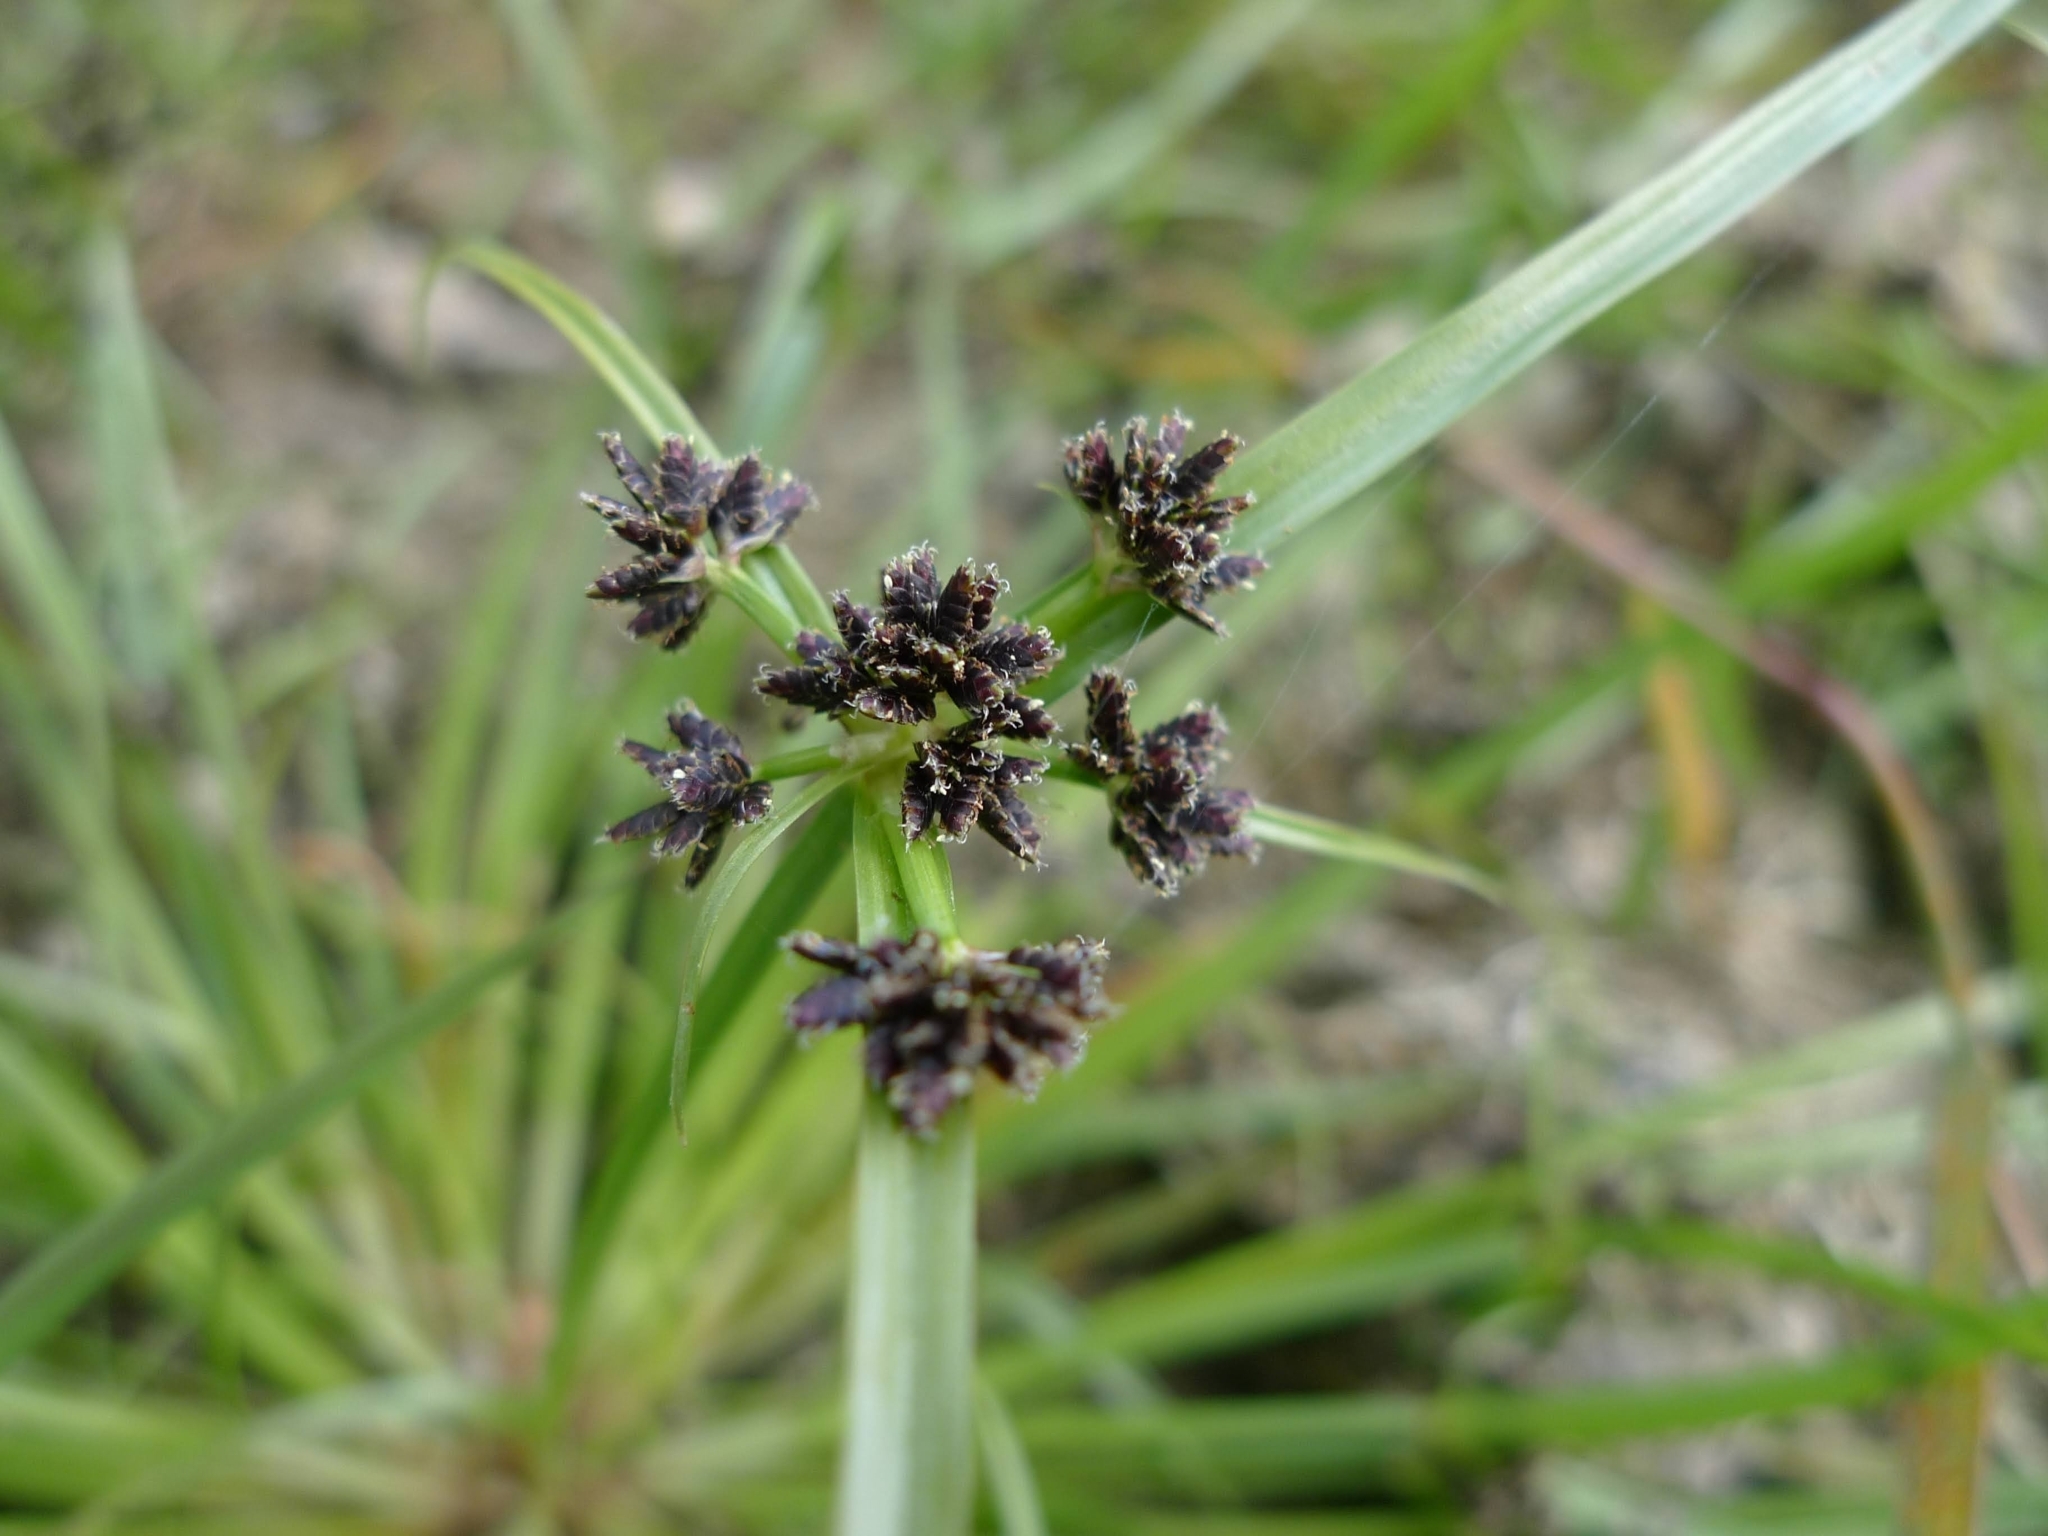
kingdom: Plantae
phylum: Tracheophyta
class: Liliopsida
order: Poales
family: Cyperaceae
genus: Cyperus
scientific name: Cyperus fuscus
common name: Brown galingale
